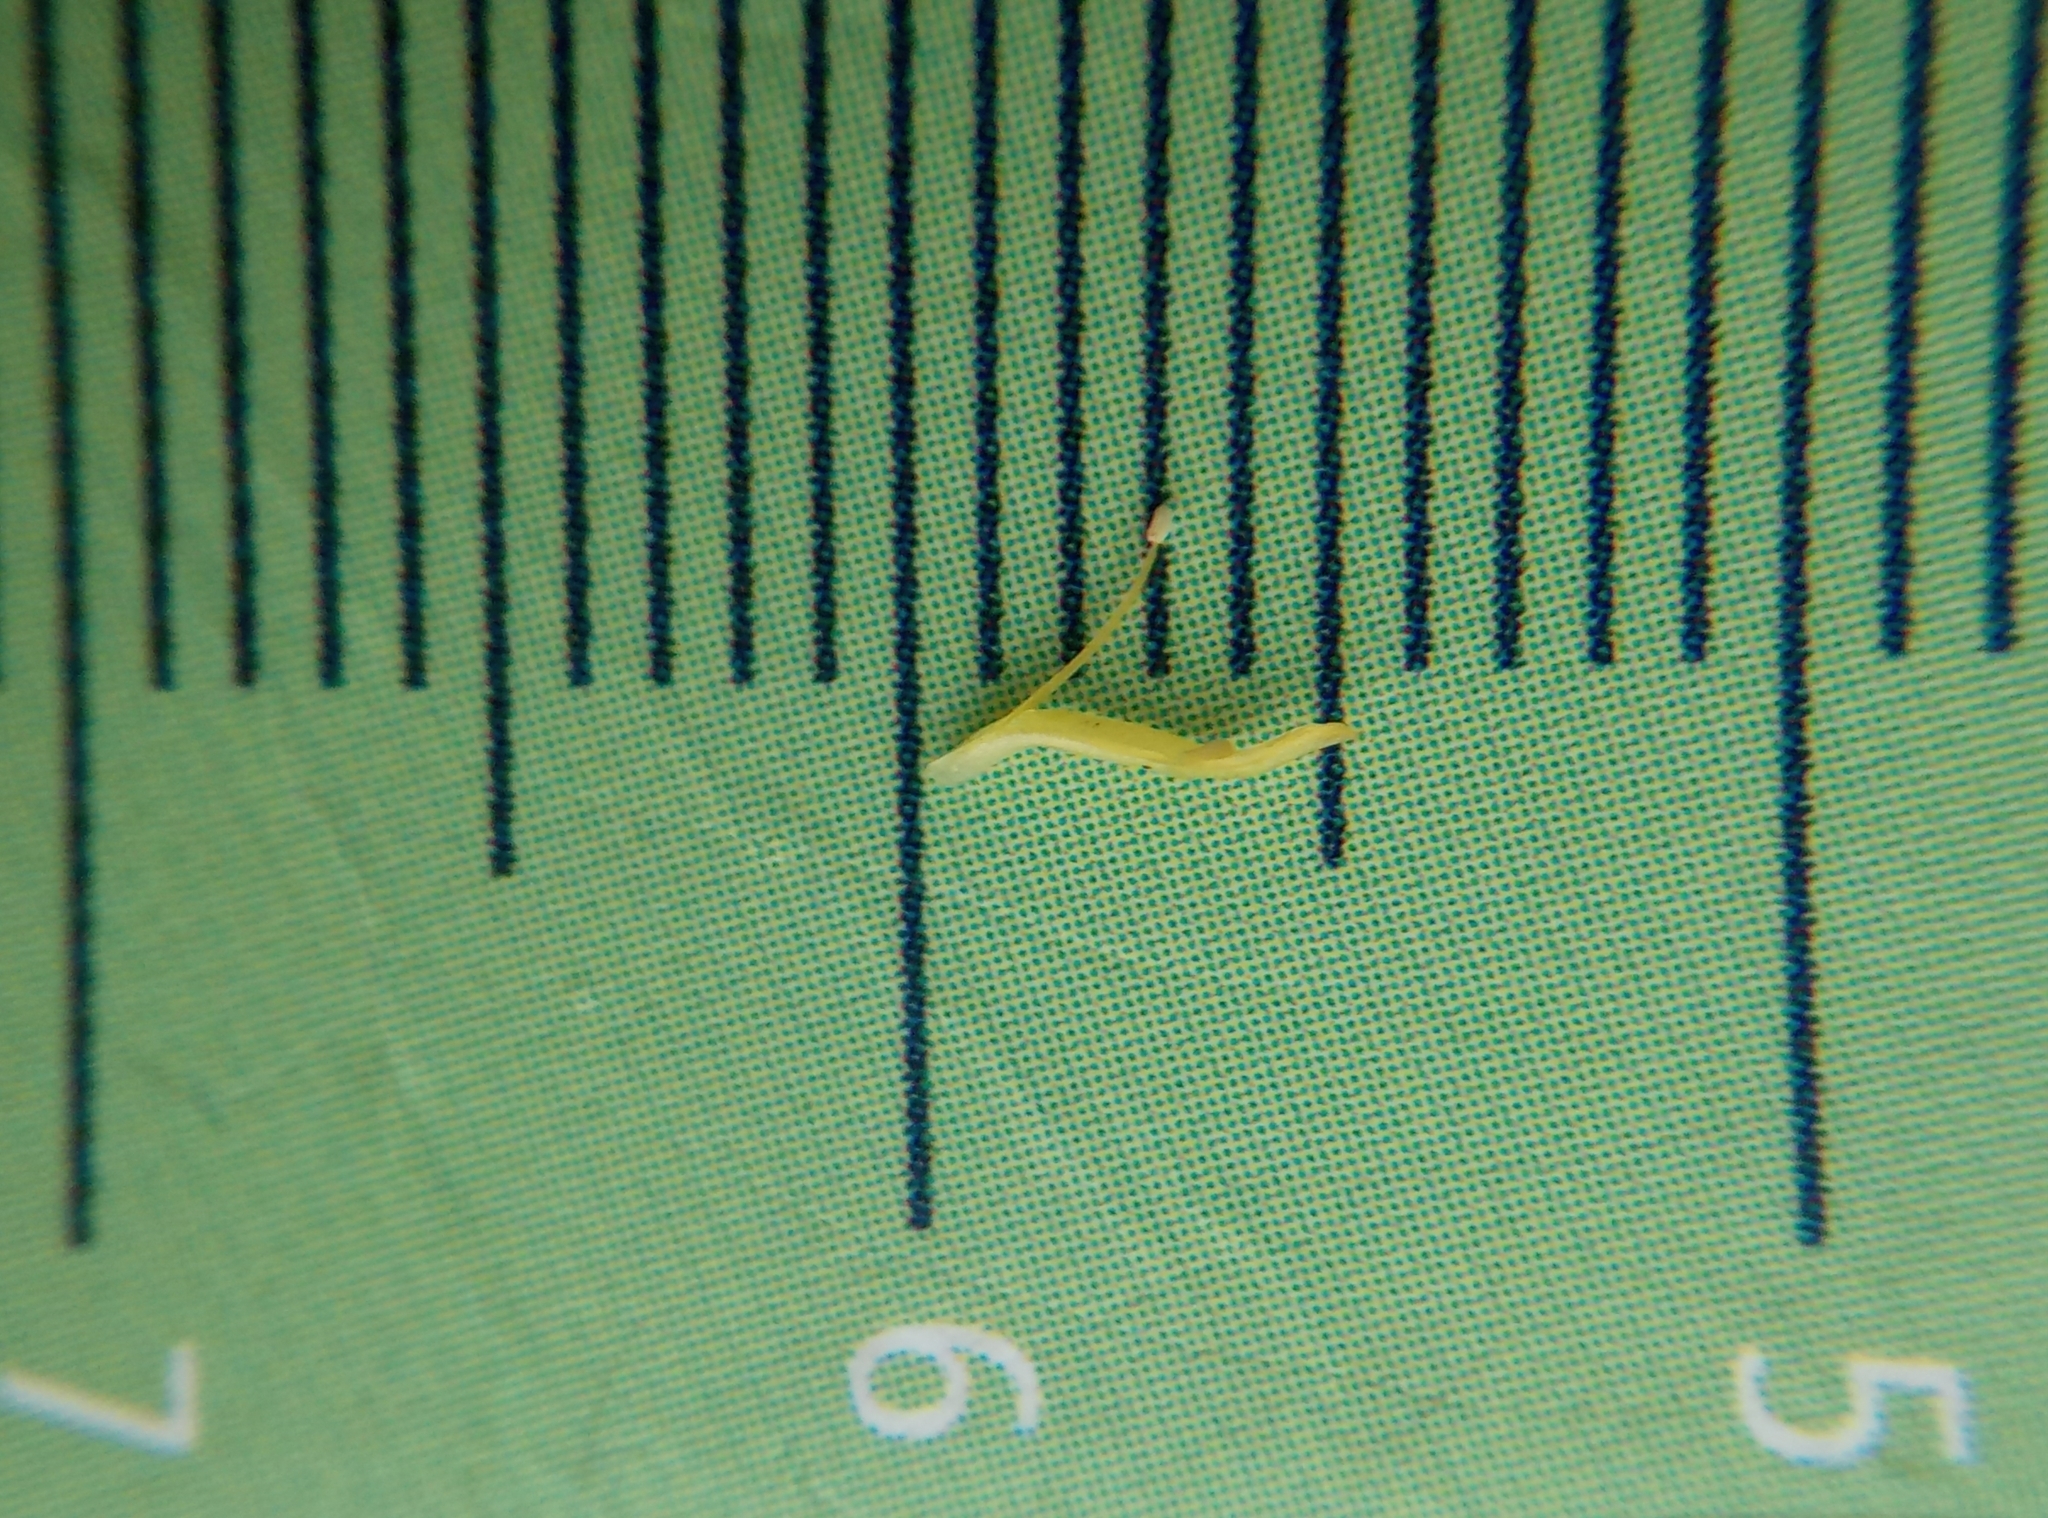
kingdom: Plantae
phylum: Tracheophyta
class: Magnoliopsida
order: Saxifragales
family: Crassulaceae
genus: Sedum
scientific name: Sedum sexangulare
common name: Tasteless stonecrop
